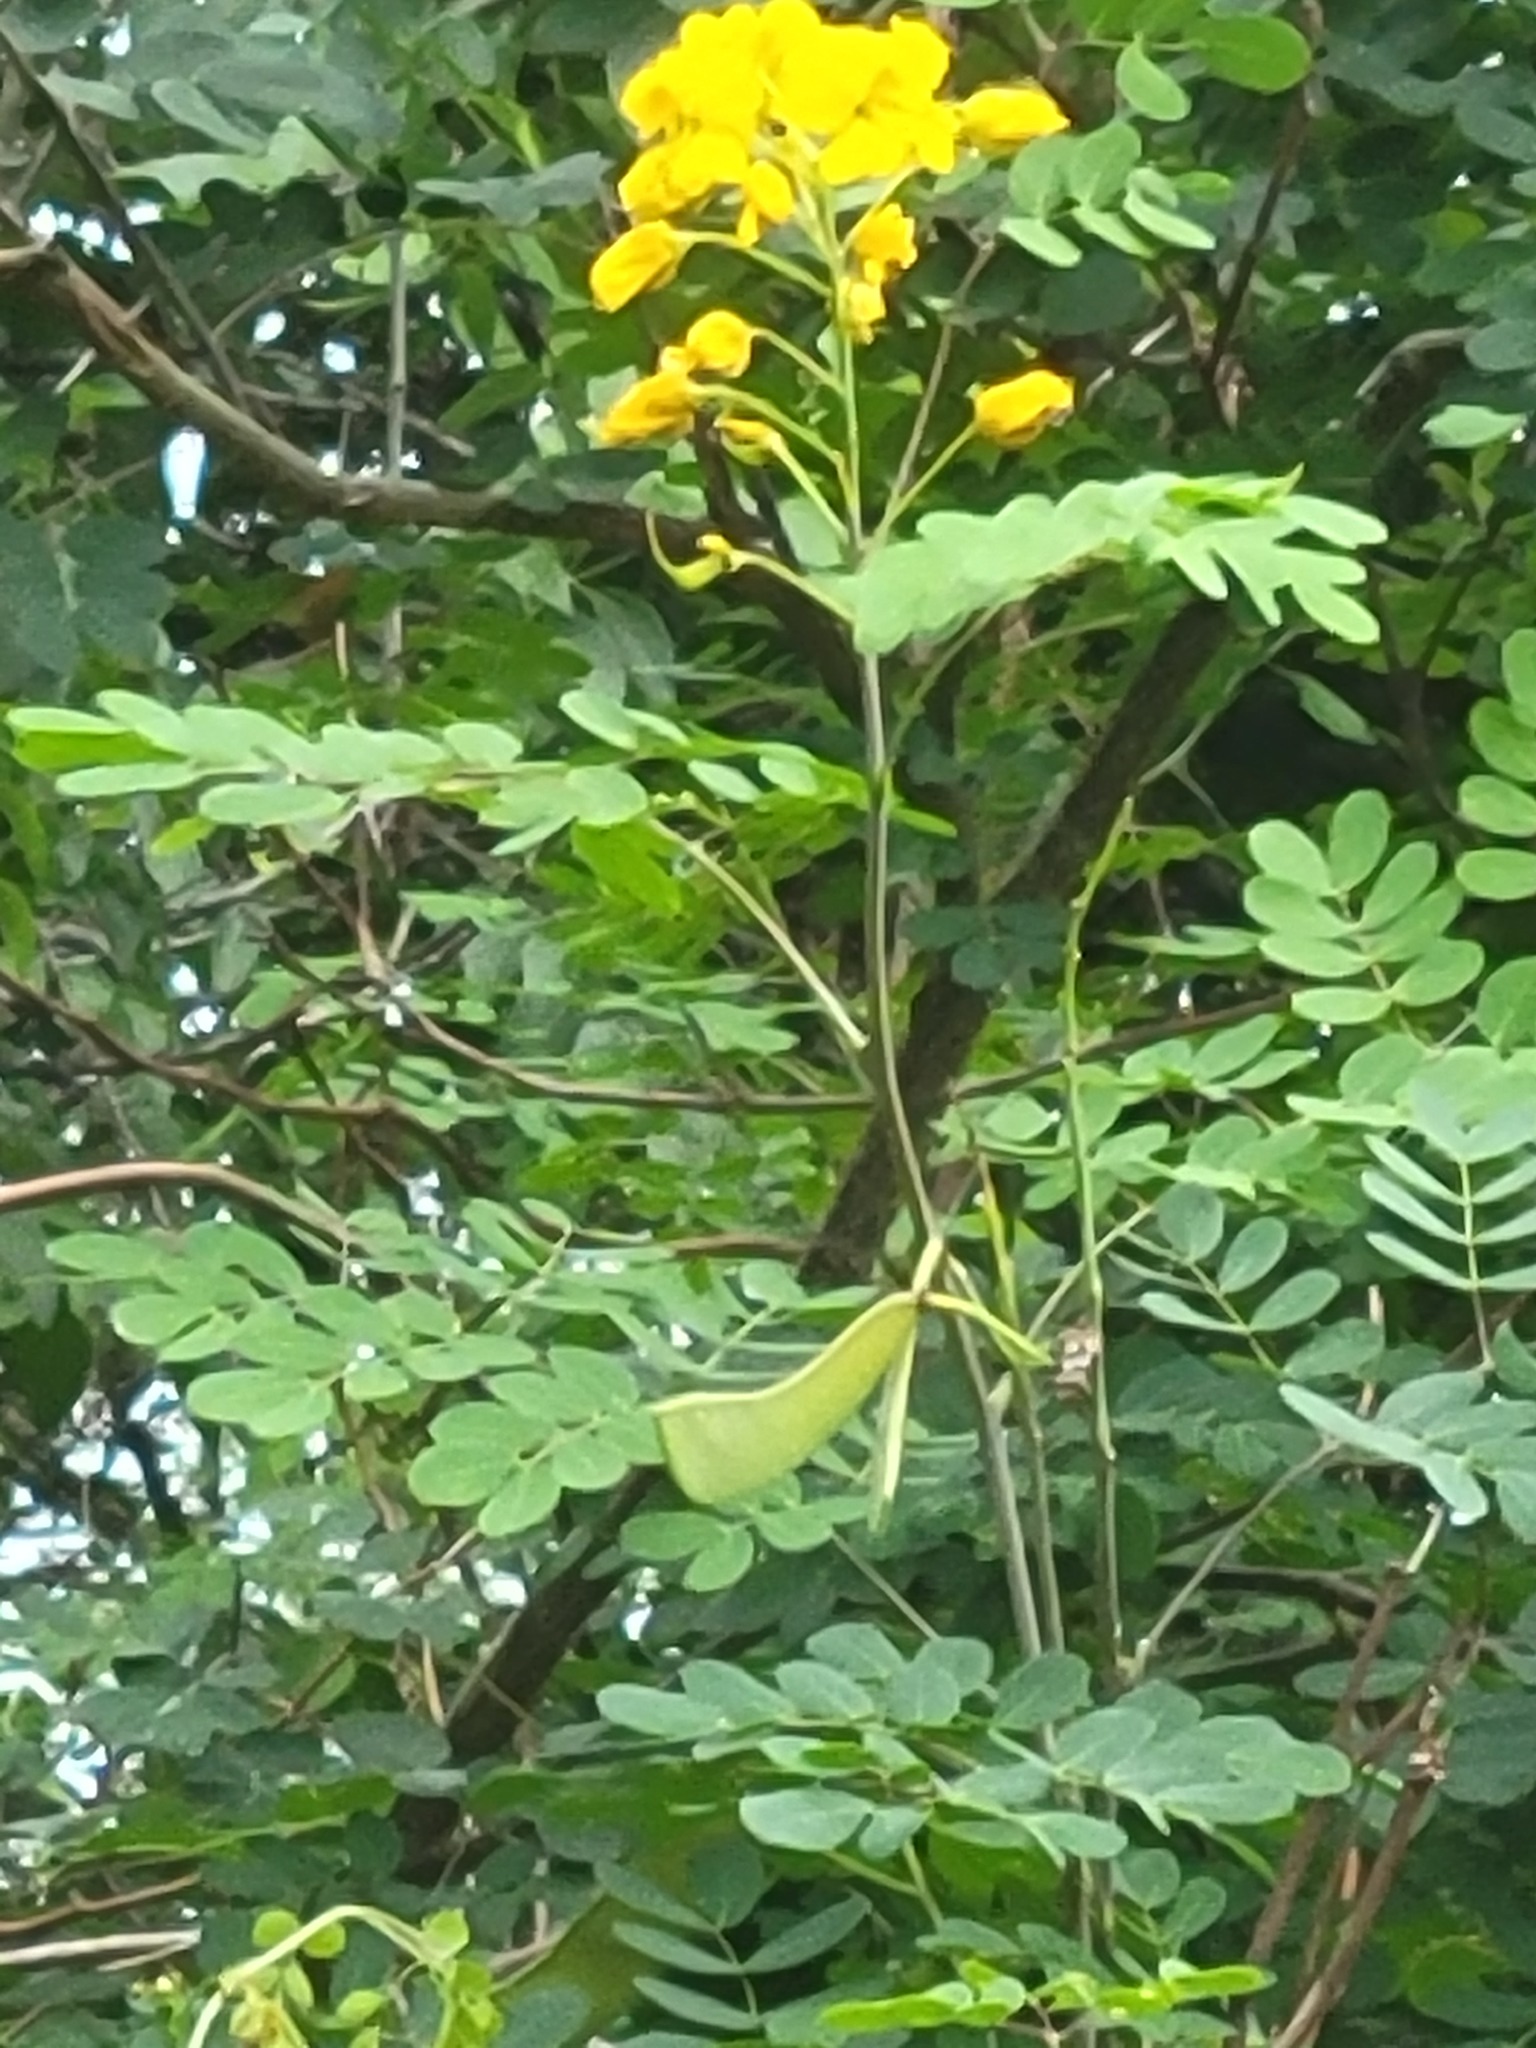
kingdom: Plantae
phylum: Tracheophyta
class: Magnoliopsida
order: Fabales
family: Fabaceae
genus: Erythrostemon
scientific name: Erythrostemon mexicanus
